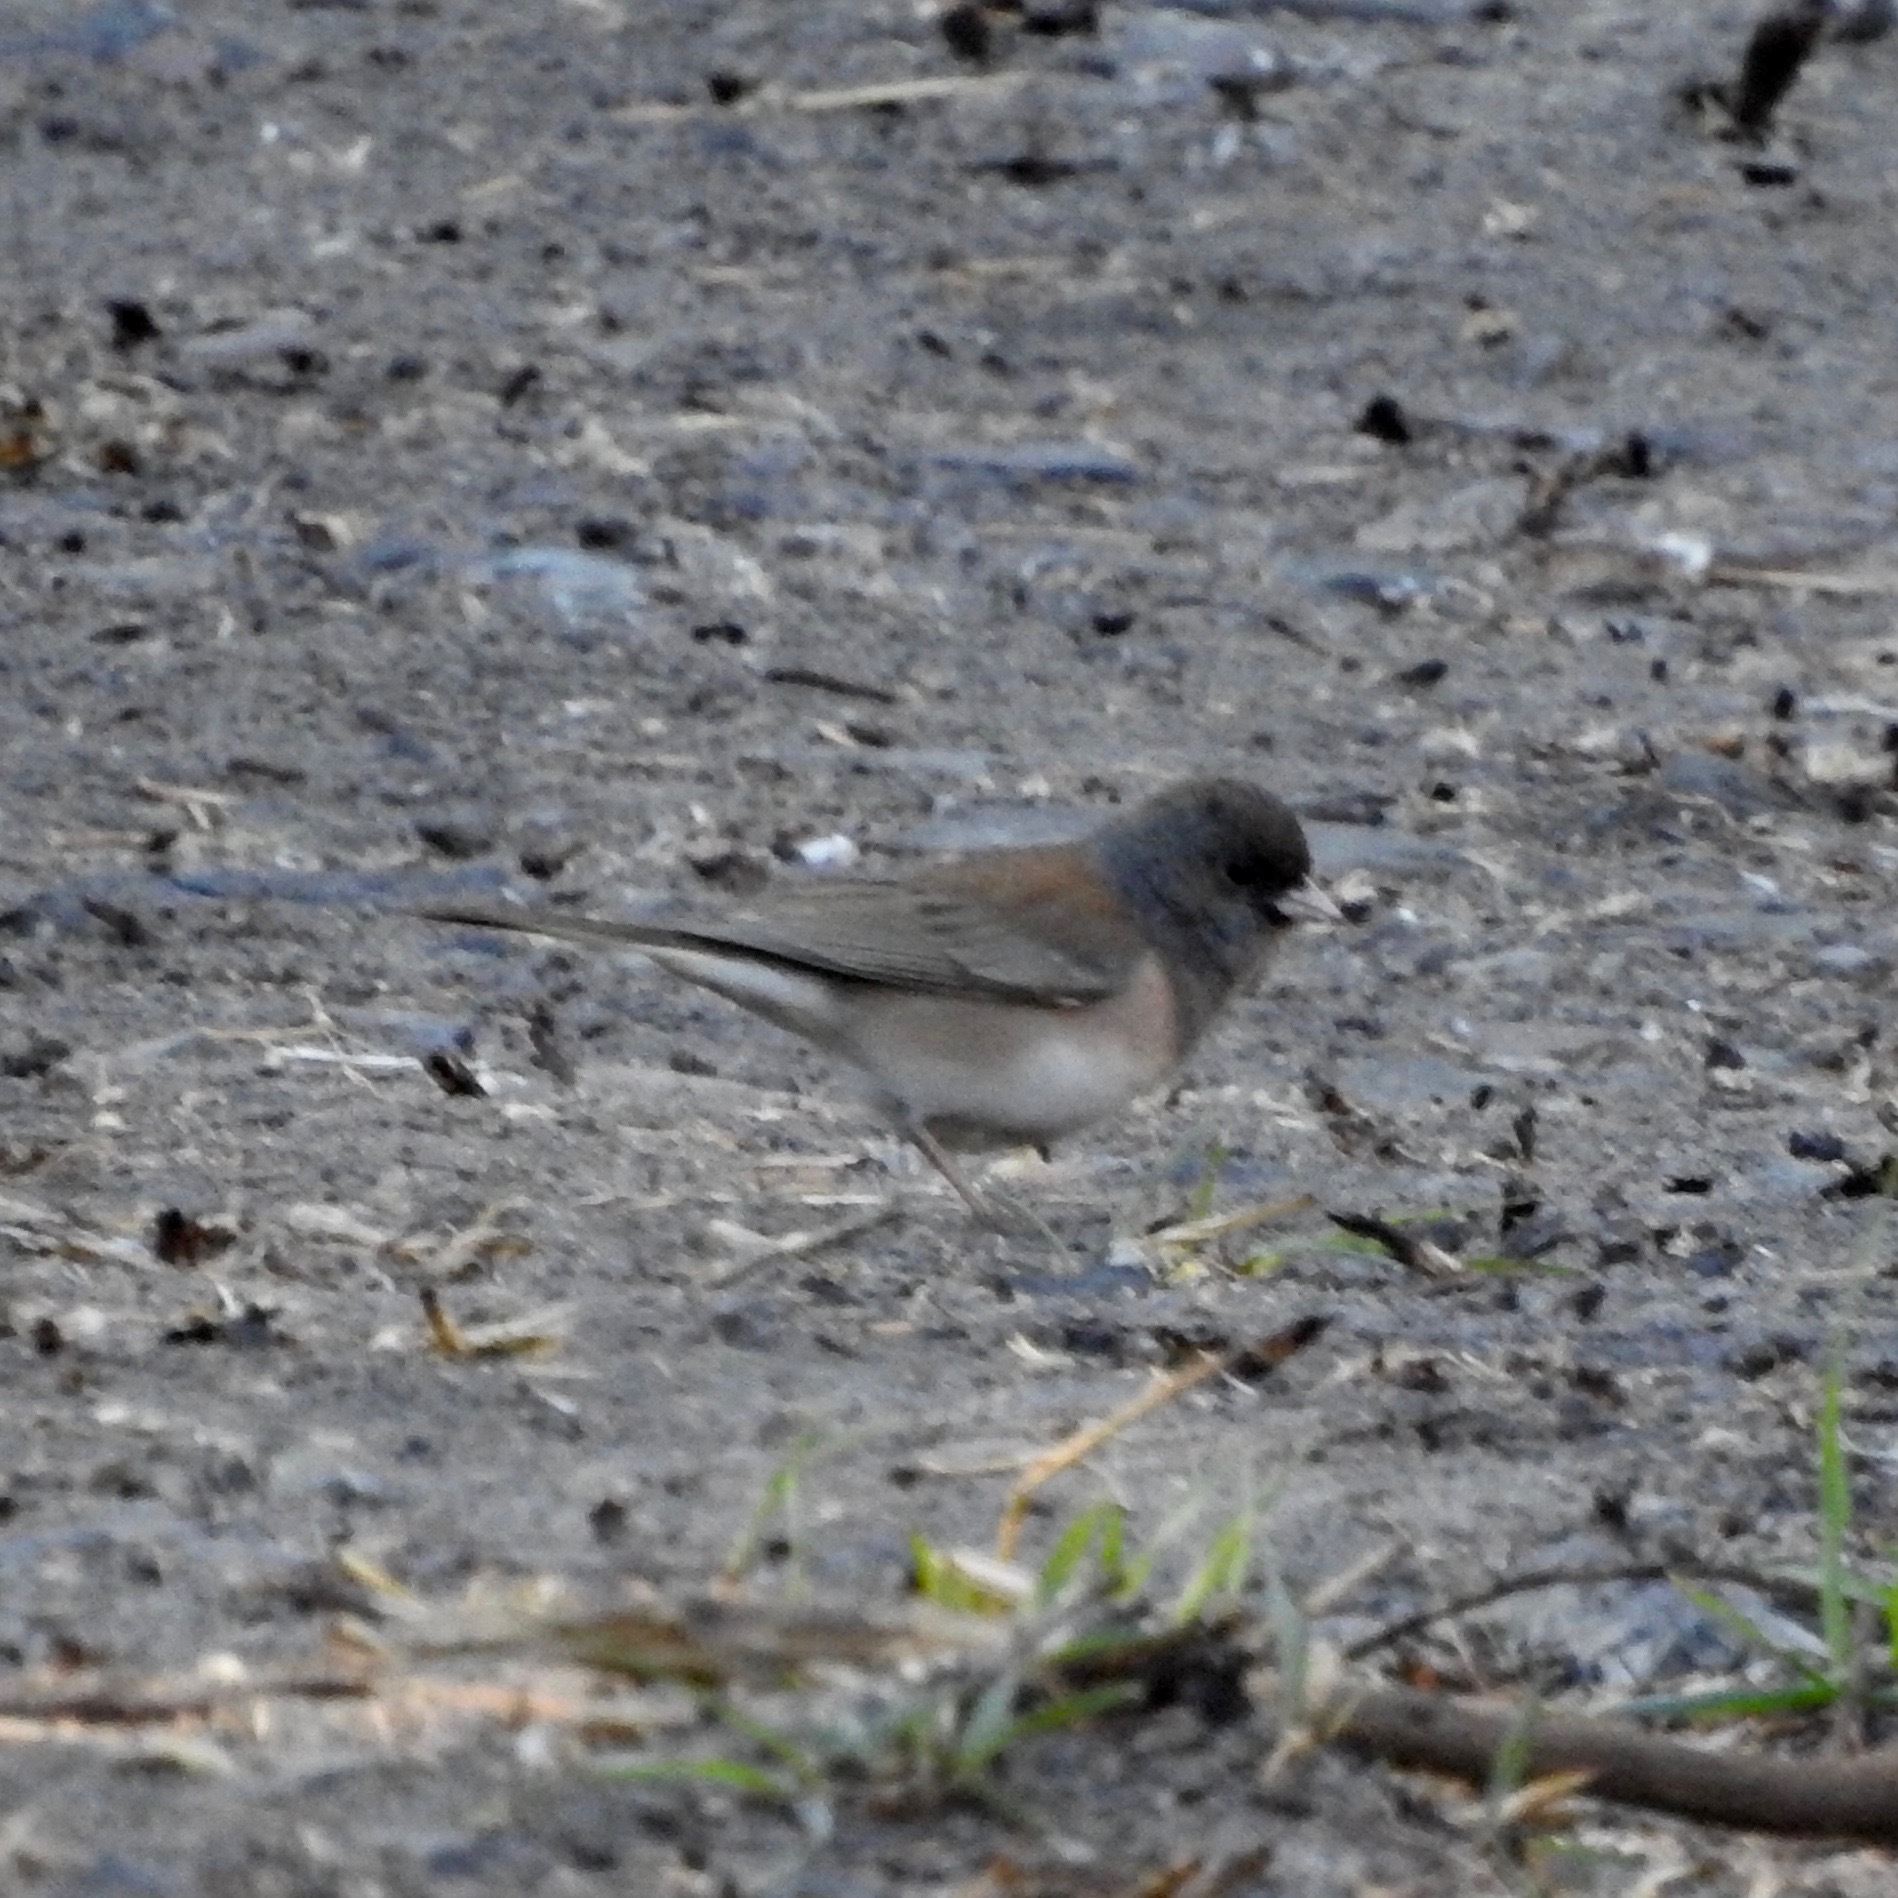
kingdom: Animalia
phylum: Chordata
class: Aves
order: Passeriformes
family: Passerellidae
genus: Junco
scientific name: Junco hyemalis
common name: Dark-eyed junco
